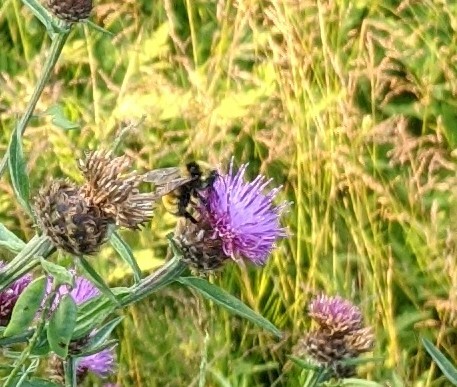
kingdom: Animalia
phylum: Arthropoda
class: Insecta
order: Hymenoptera
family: Apidae
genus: Bombus
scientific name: Bombus borealis
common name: Northern amber bumble bee
